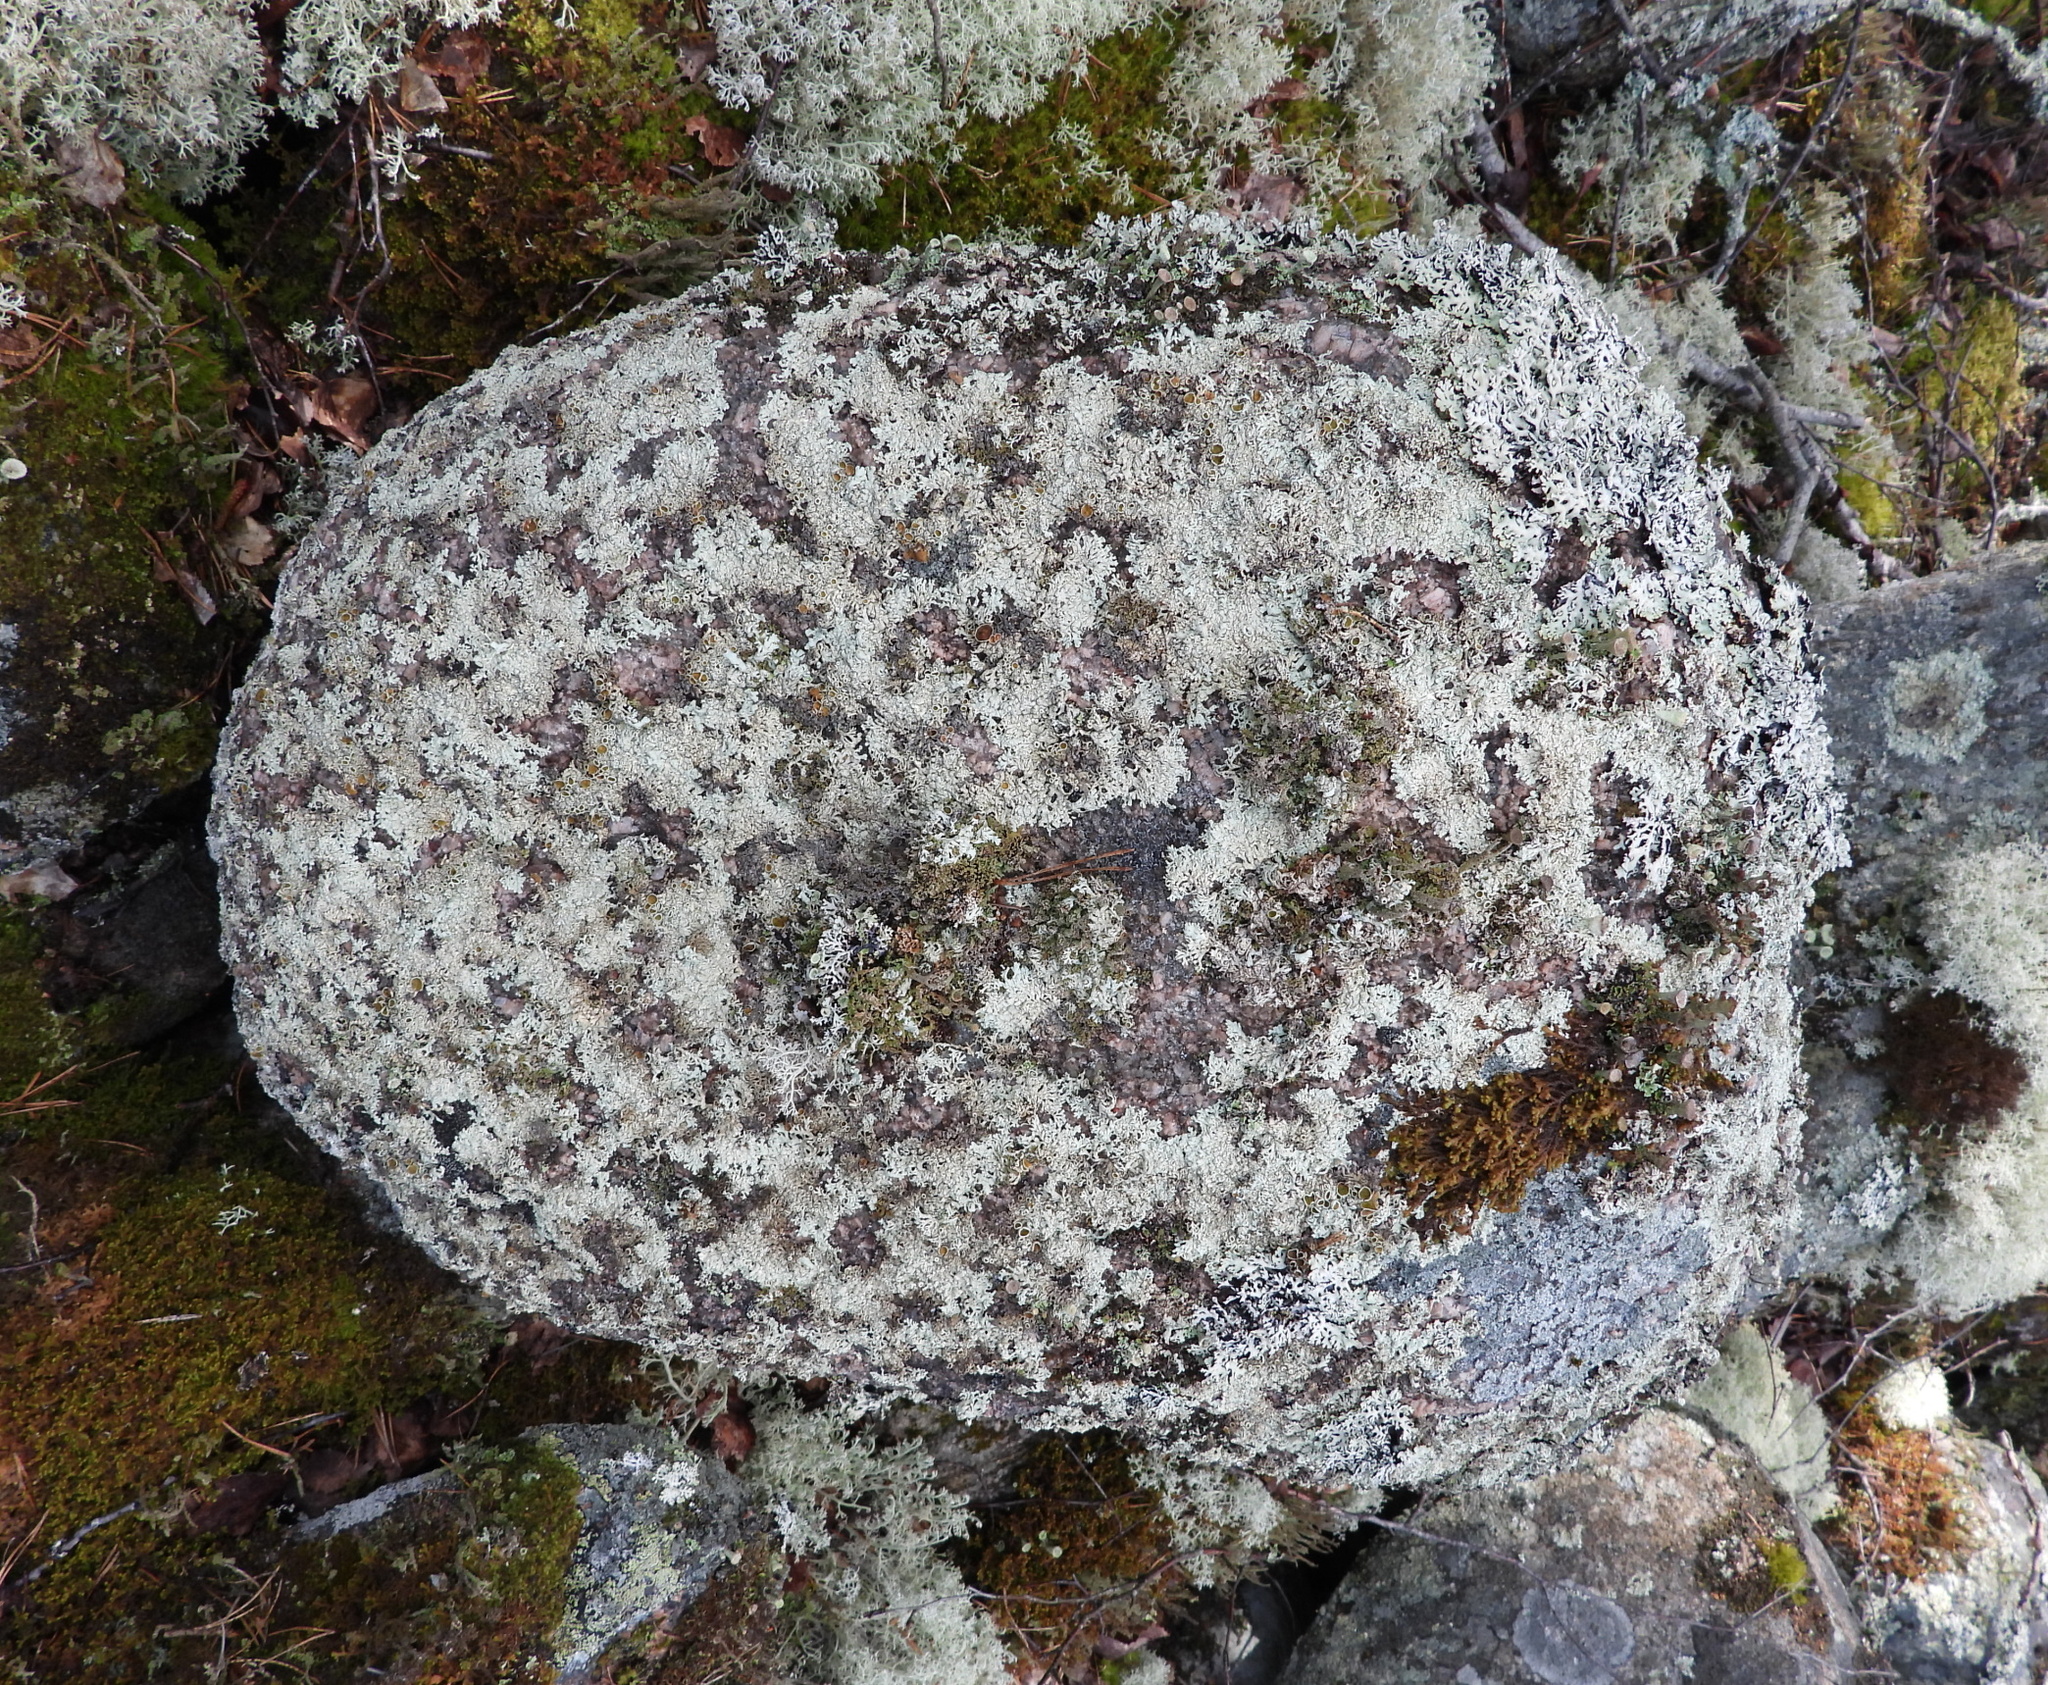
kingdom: Fungi
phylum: Ascomycota
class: Lecanoromycetes
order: Lecanorales
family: Parmeliaceae
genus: Arctoparmelia
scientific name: Arctoparmelia centrifuga
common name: Concentric ring lichen
